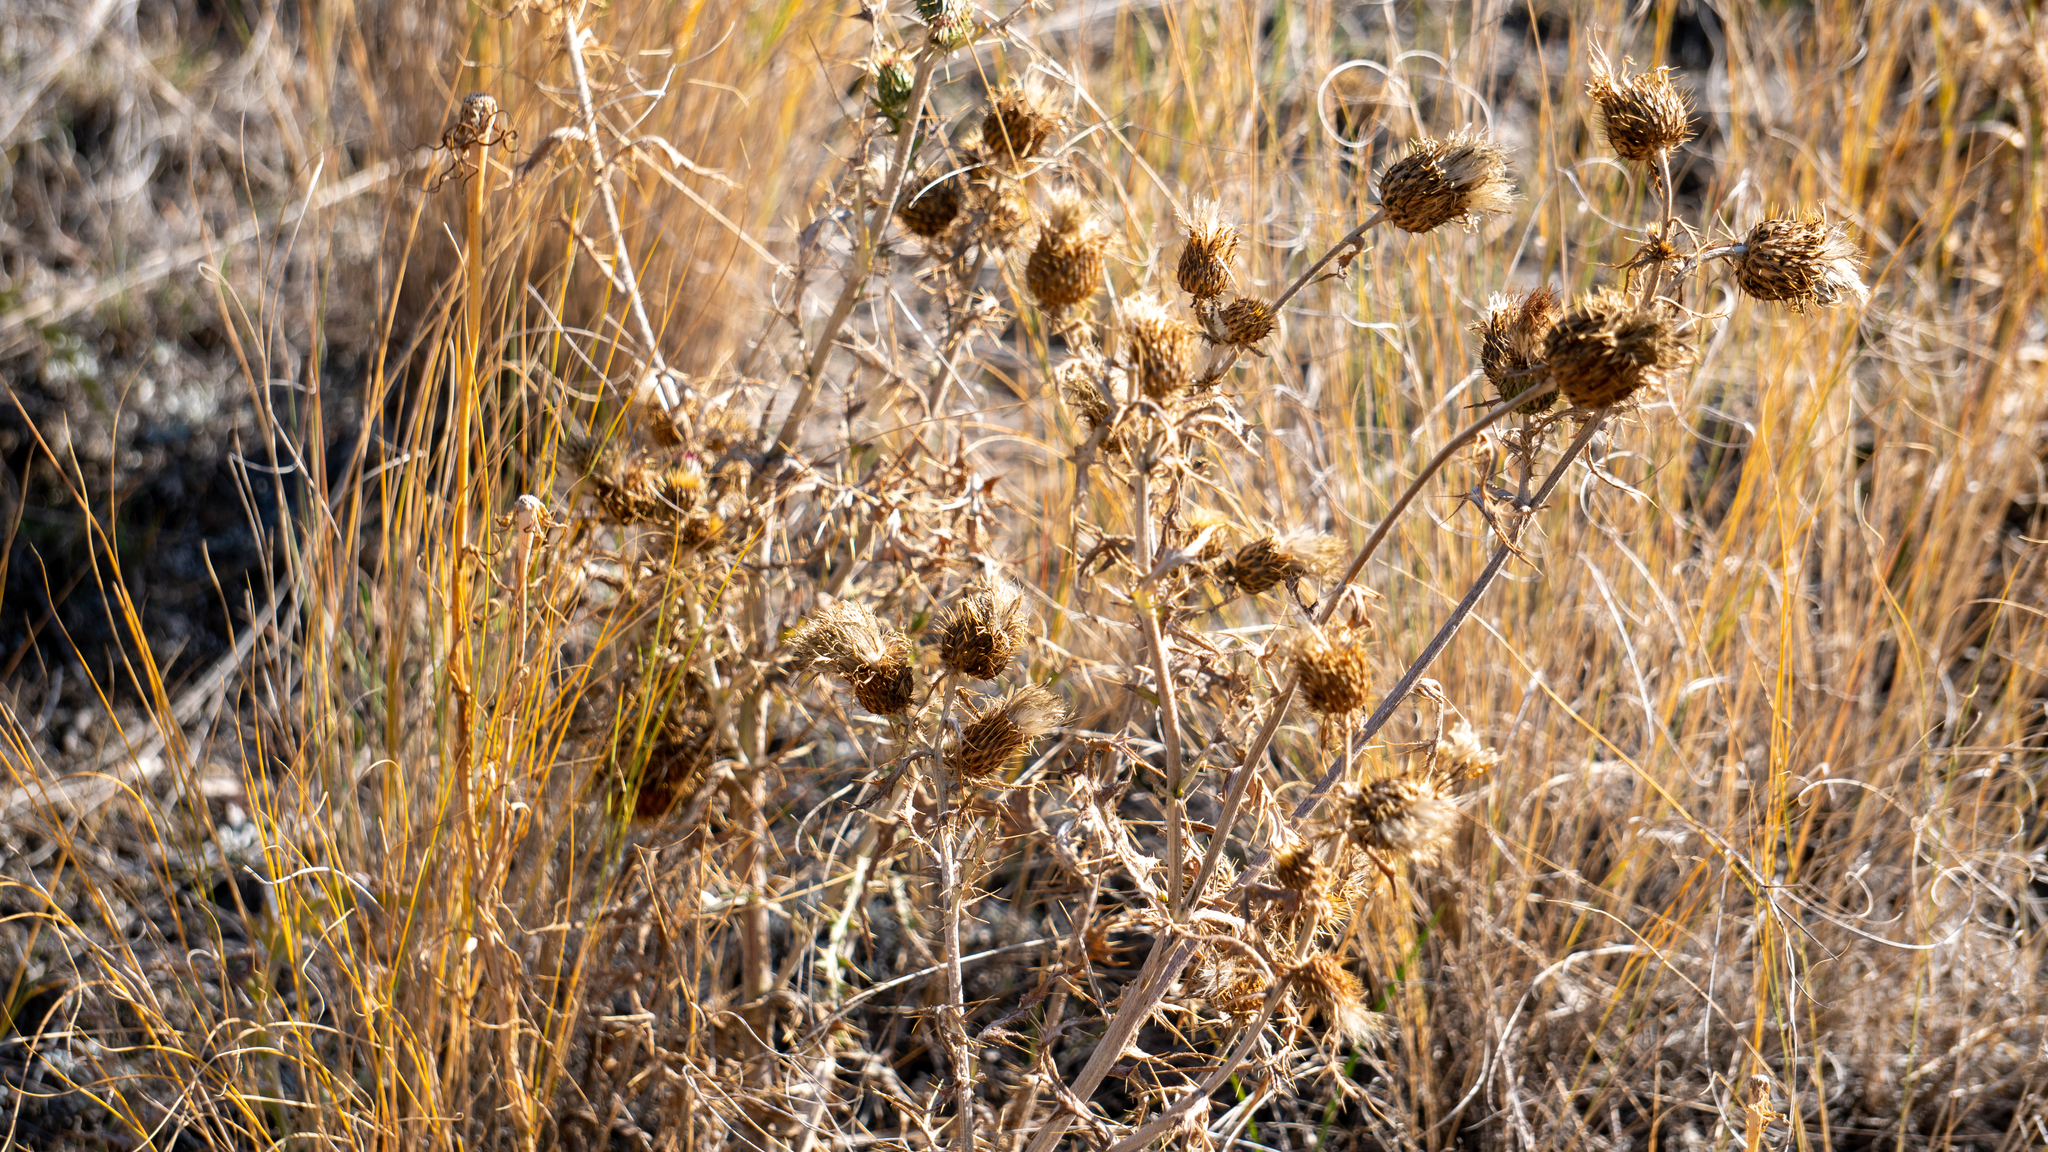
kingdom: Plantae
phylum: Tracheophyta
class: Magnoliopsida
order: Asterales
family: Asteraceae
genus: Cirsium
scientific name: Cirsium undulatum
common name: Pasture thistle
